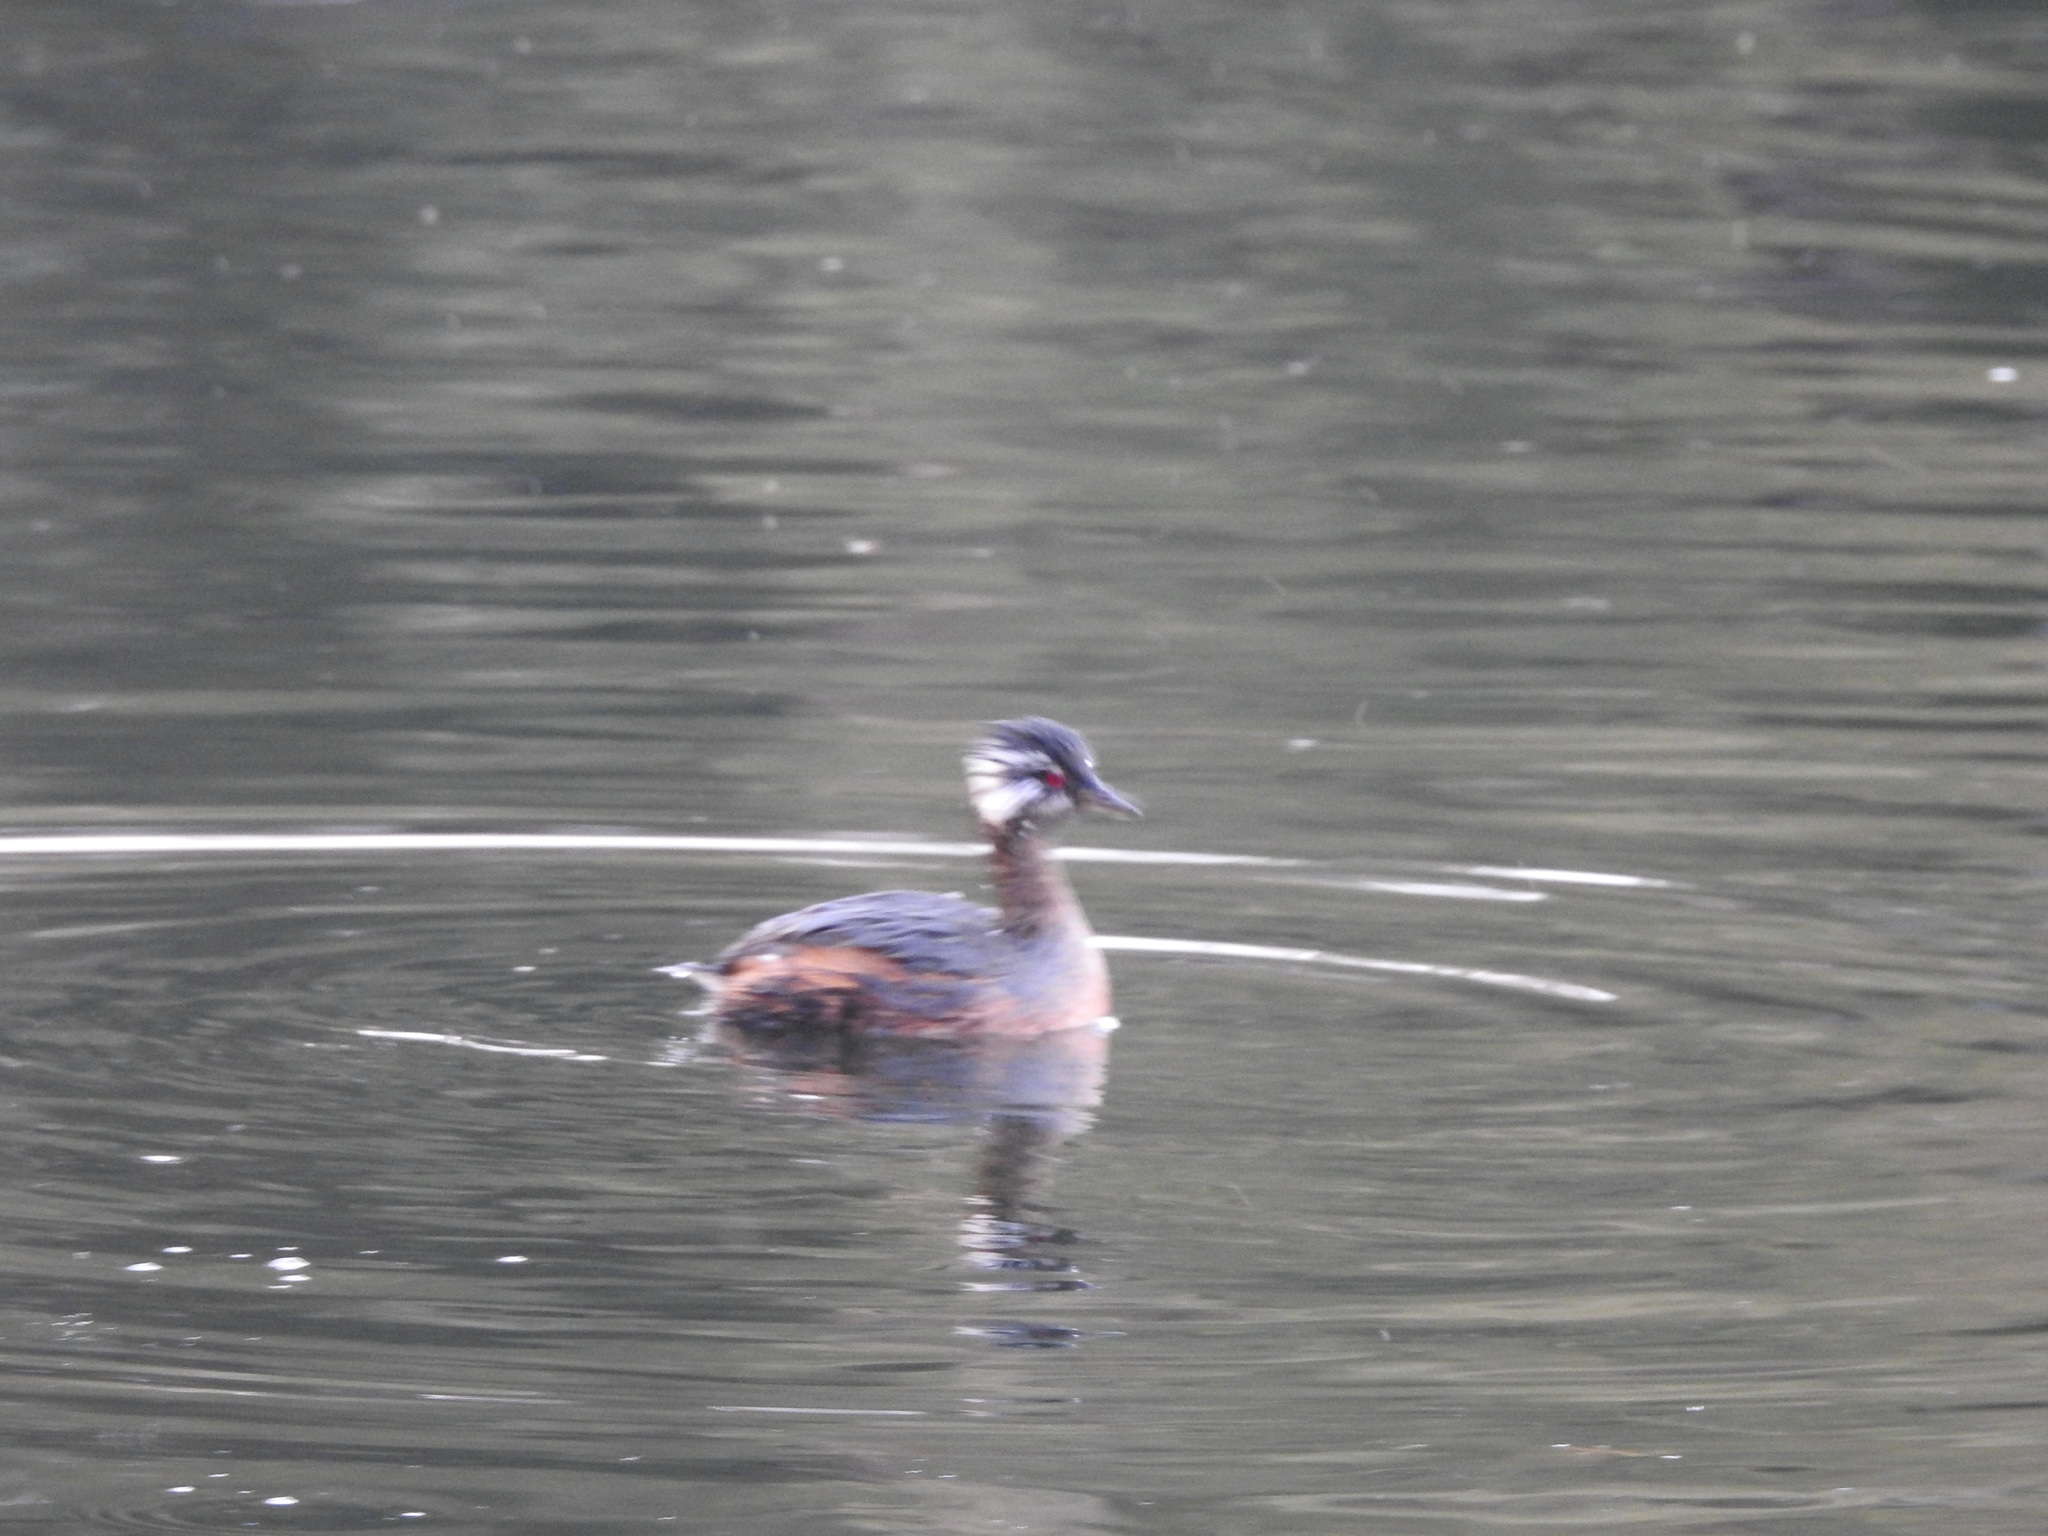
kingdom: Animalia
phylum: Chordata
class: Aves
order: Podicipediformes
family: Podicipedidae
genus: Rollandia
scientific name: Rollandia rolland
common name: White-tufted grebe
